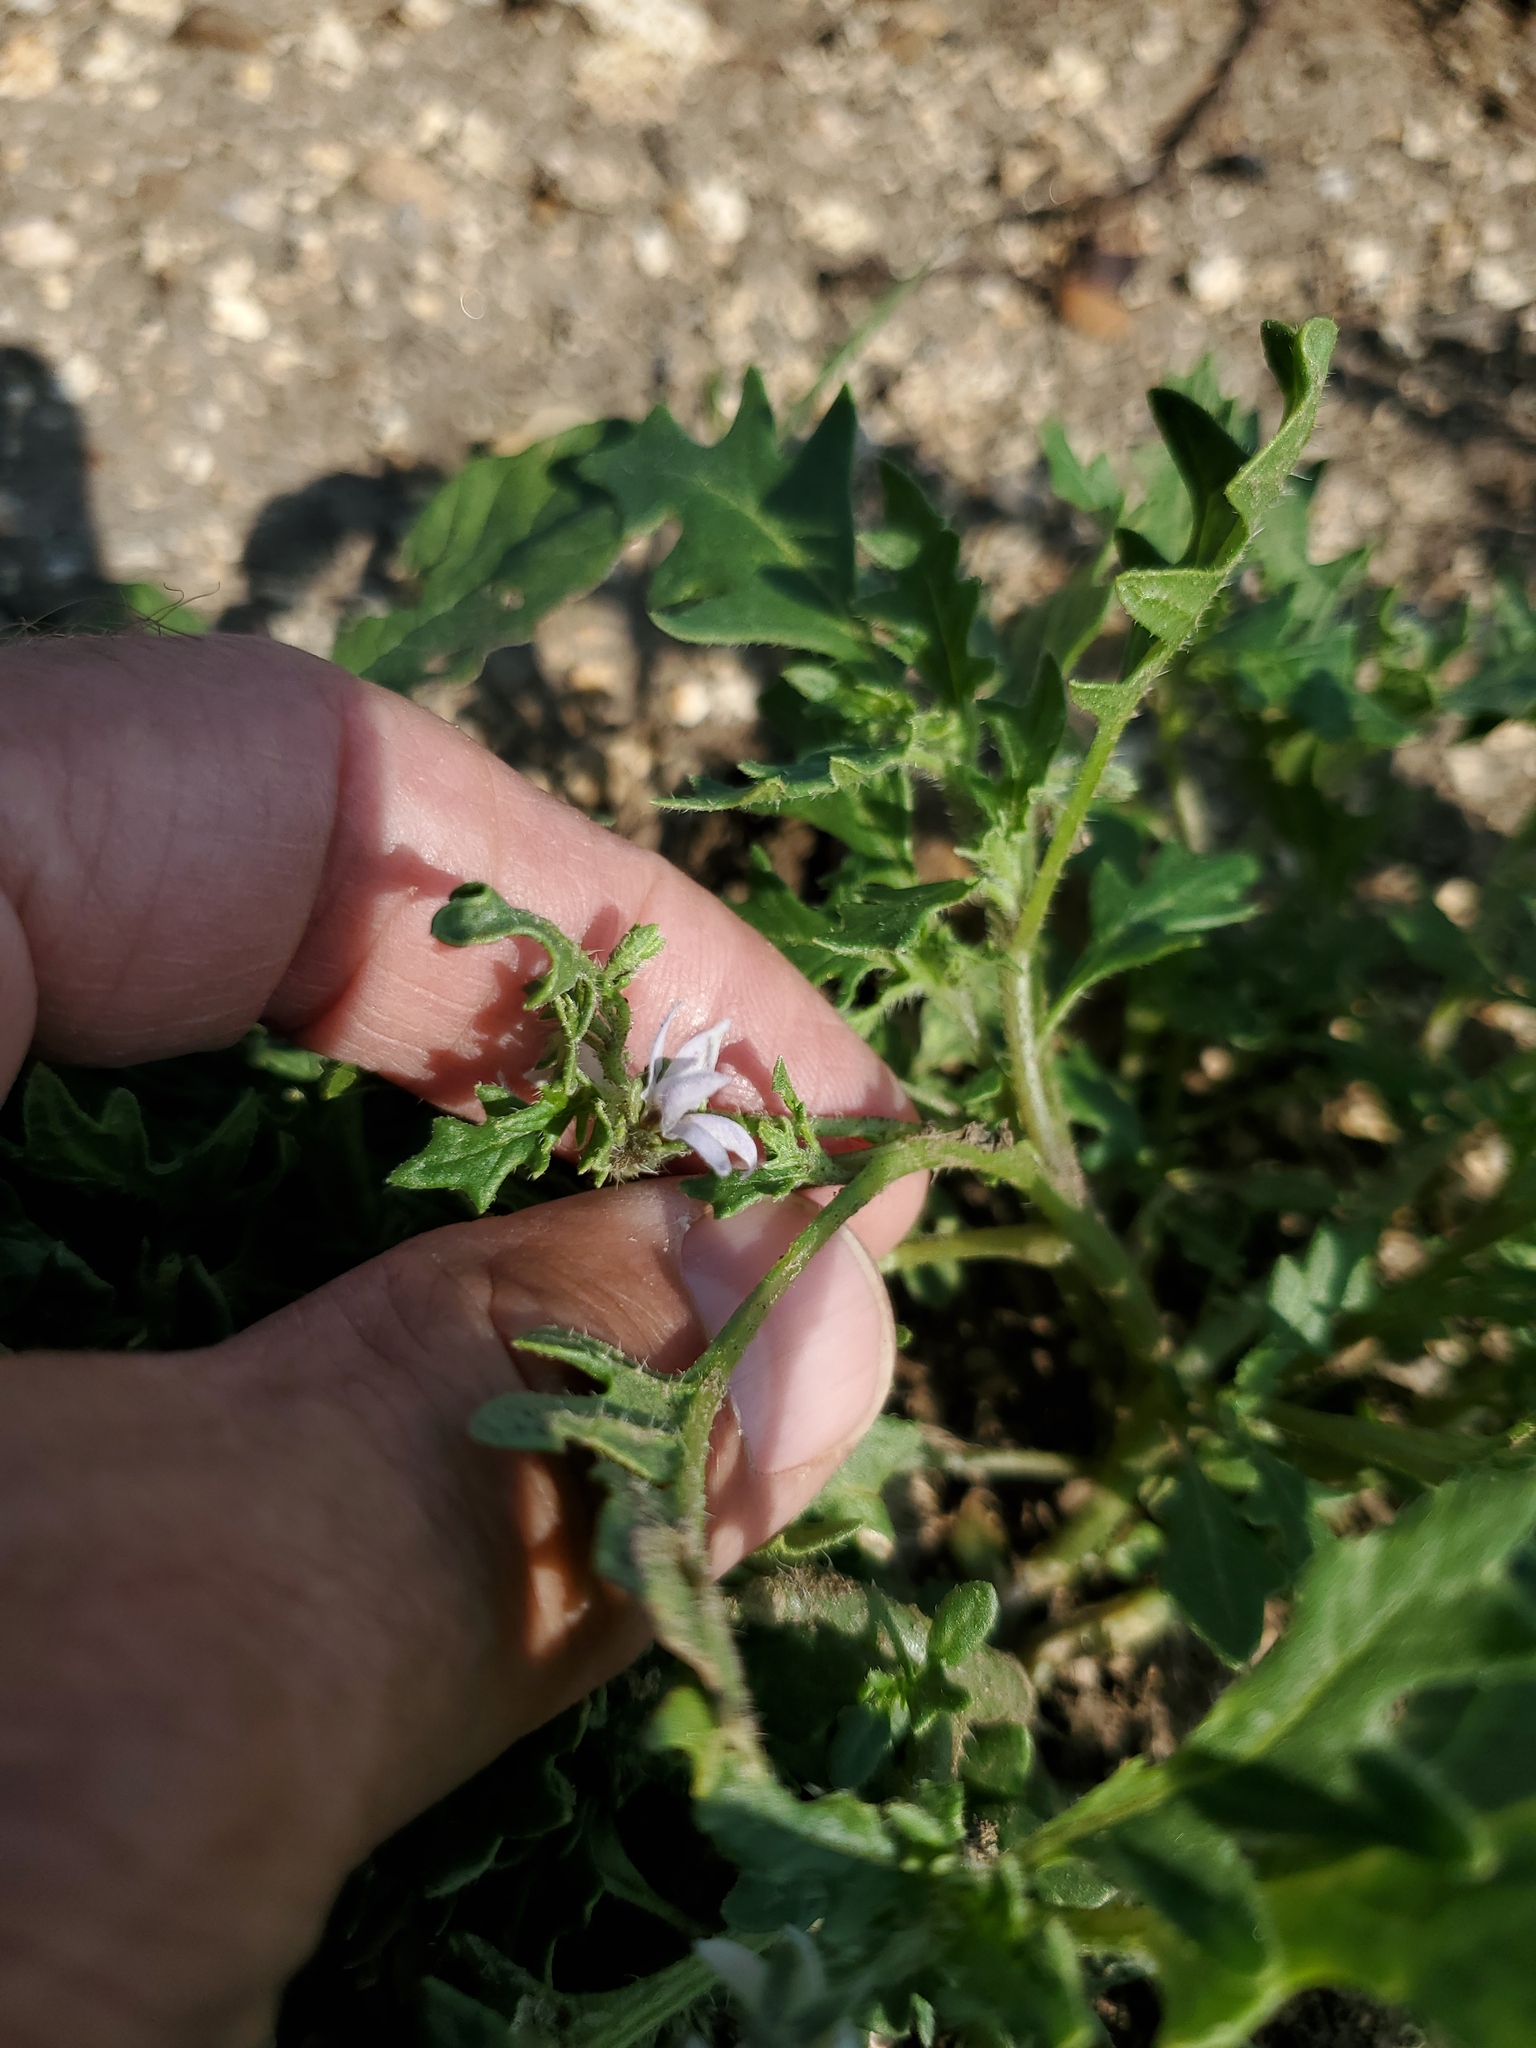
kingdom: Plantae
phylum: Tracheophyta
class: Magnoliopsida
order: Solanales
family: Solanaceae
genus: Solanum
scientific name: Solanum triflorum
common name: Small nightshade
